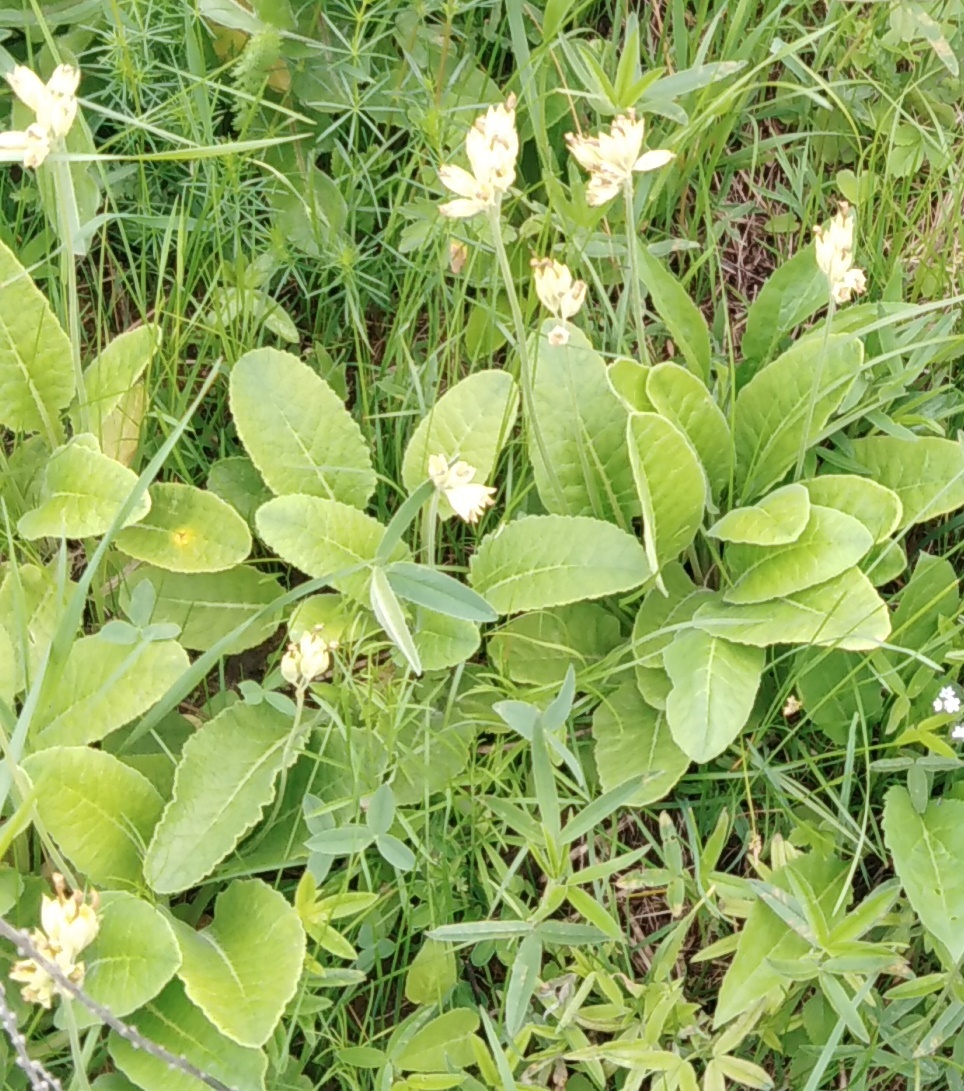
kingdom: Plantae
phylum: Tracheophyta
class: Magnoliopsida
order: Ericales
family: Primulaceae
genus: Primula
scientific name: Primula veris
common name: Cowslip
